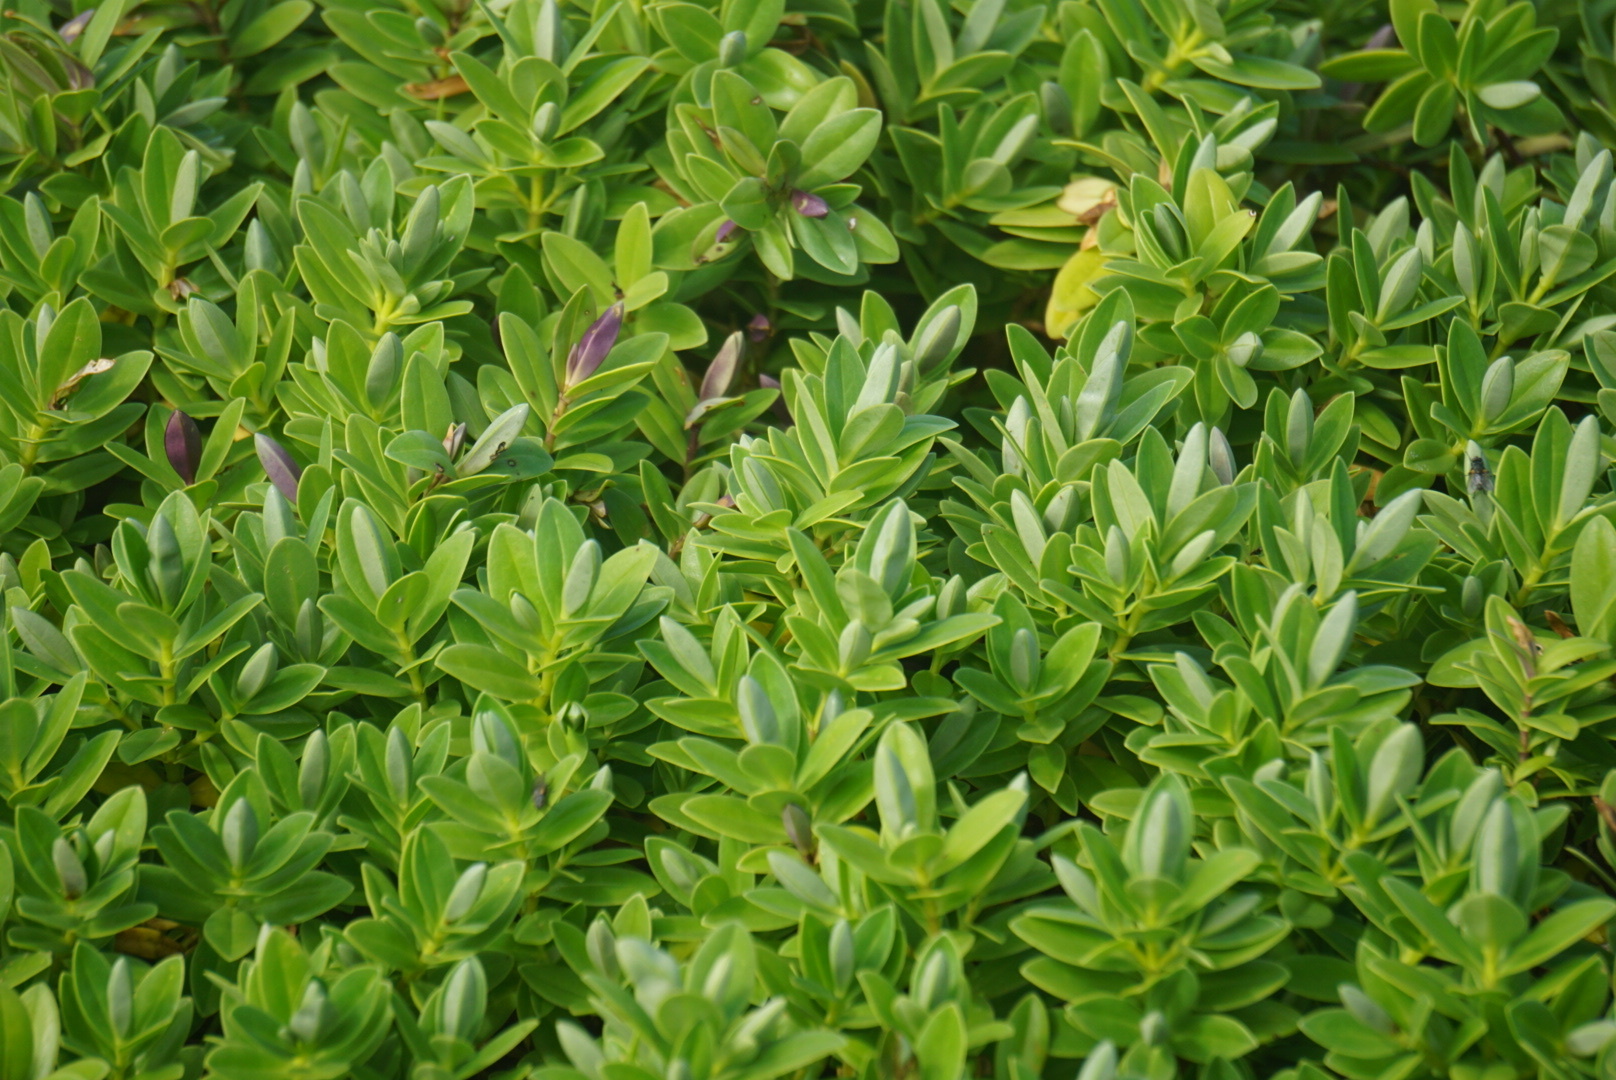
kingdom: Plantae
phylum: Tracheophyta
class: Magnoliopsida
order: Lamiales
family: Plantaginaceae
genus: Veronica
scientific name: Veronica chathamica
